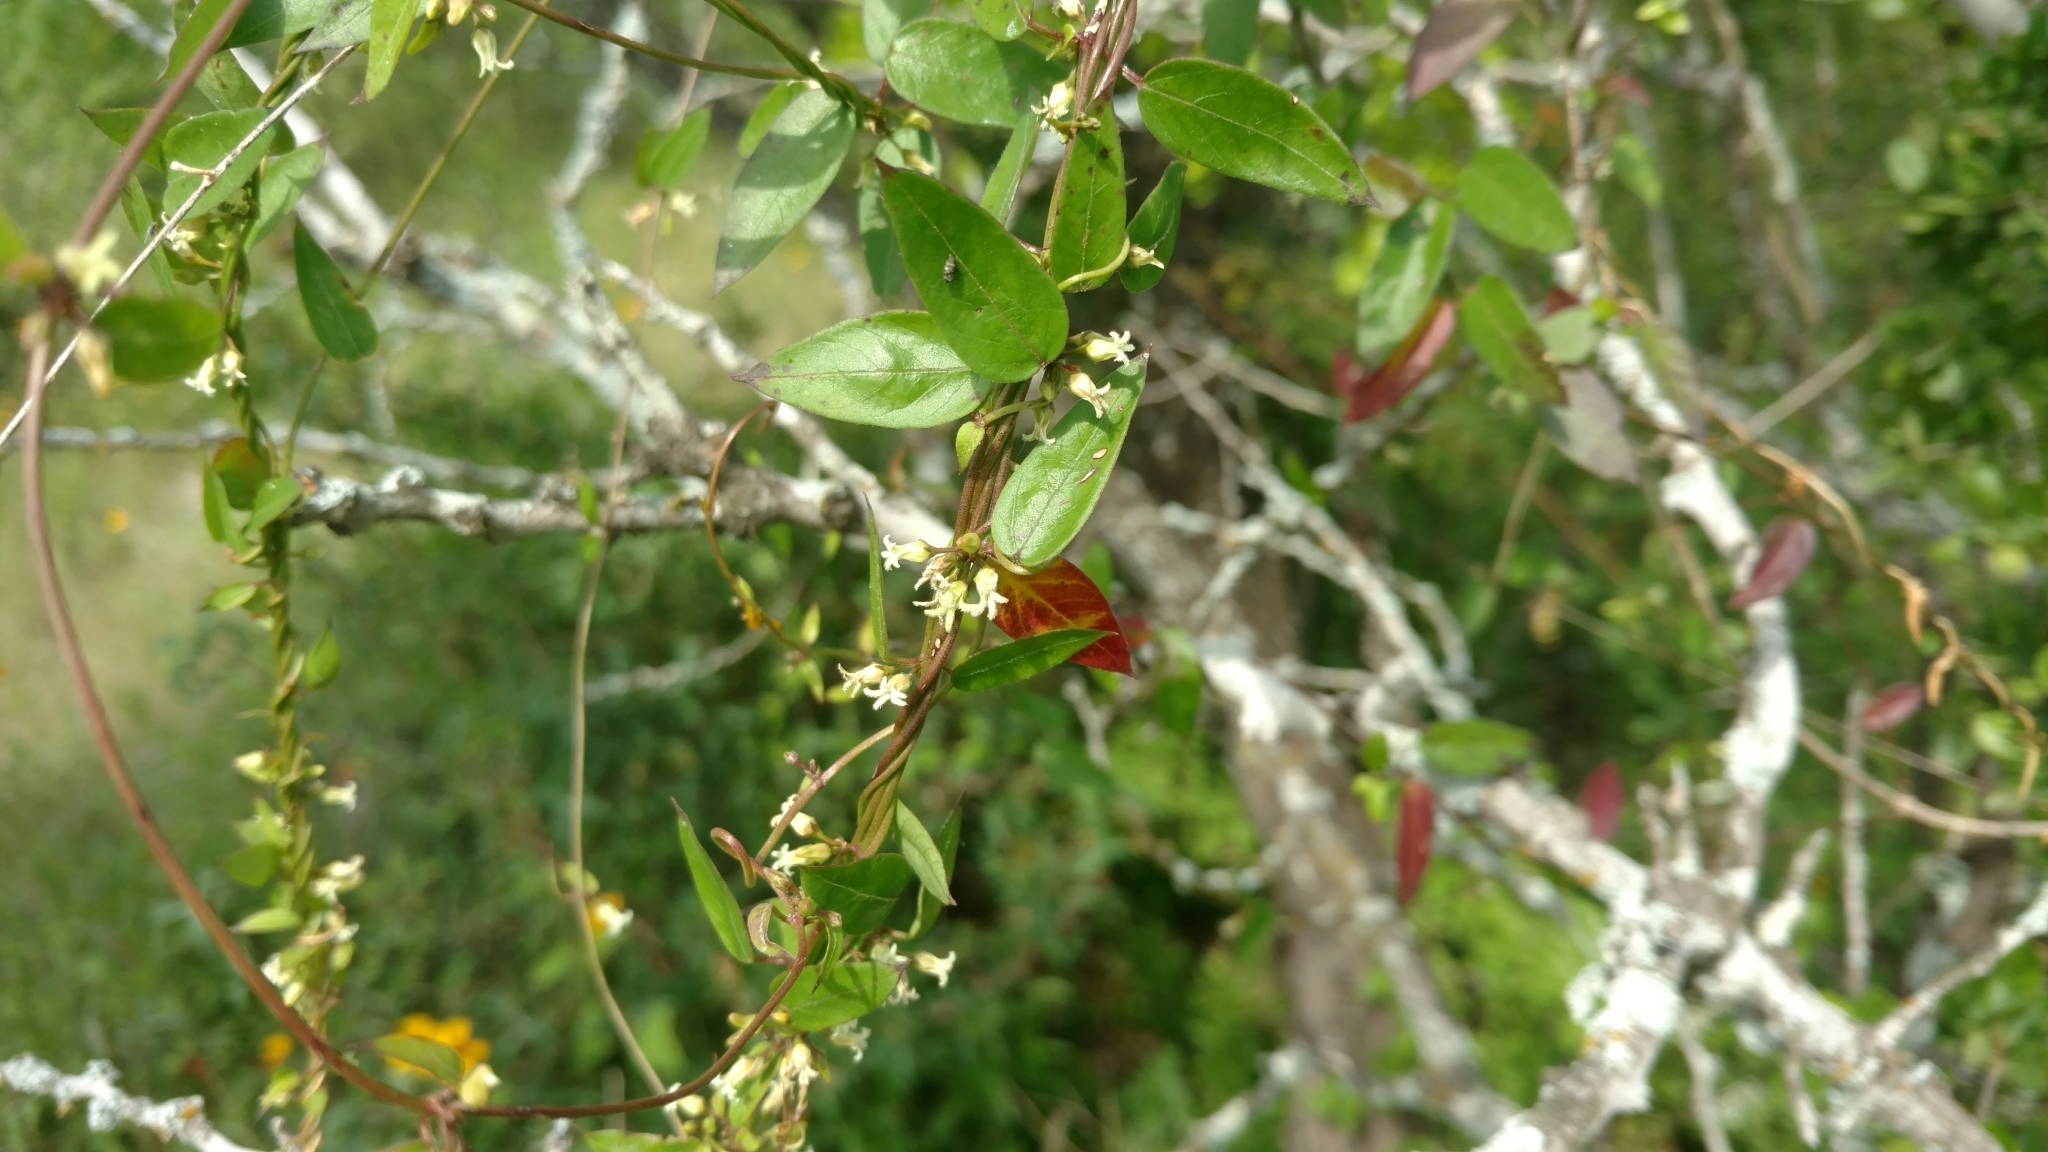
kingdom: Plantae
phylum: Tracheophyta
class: Magnoliopsida
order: Gentianales
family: Apocynaceae
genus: Metastelma
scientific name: Metastelma barbigerum
